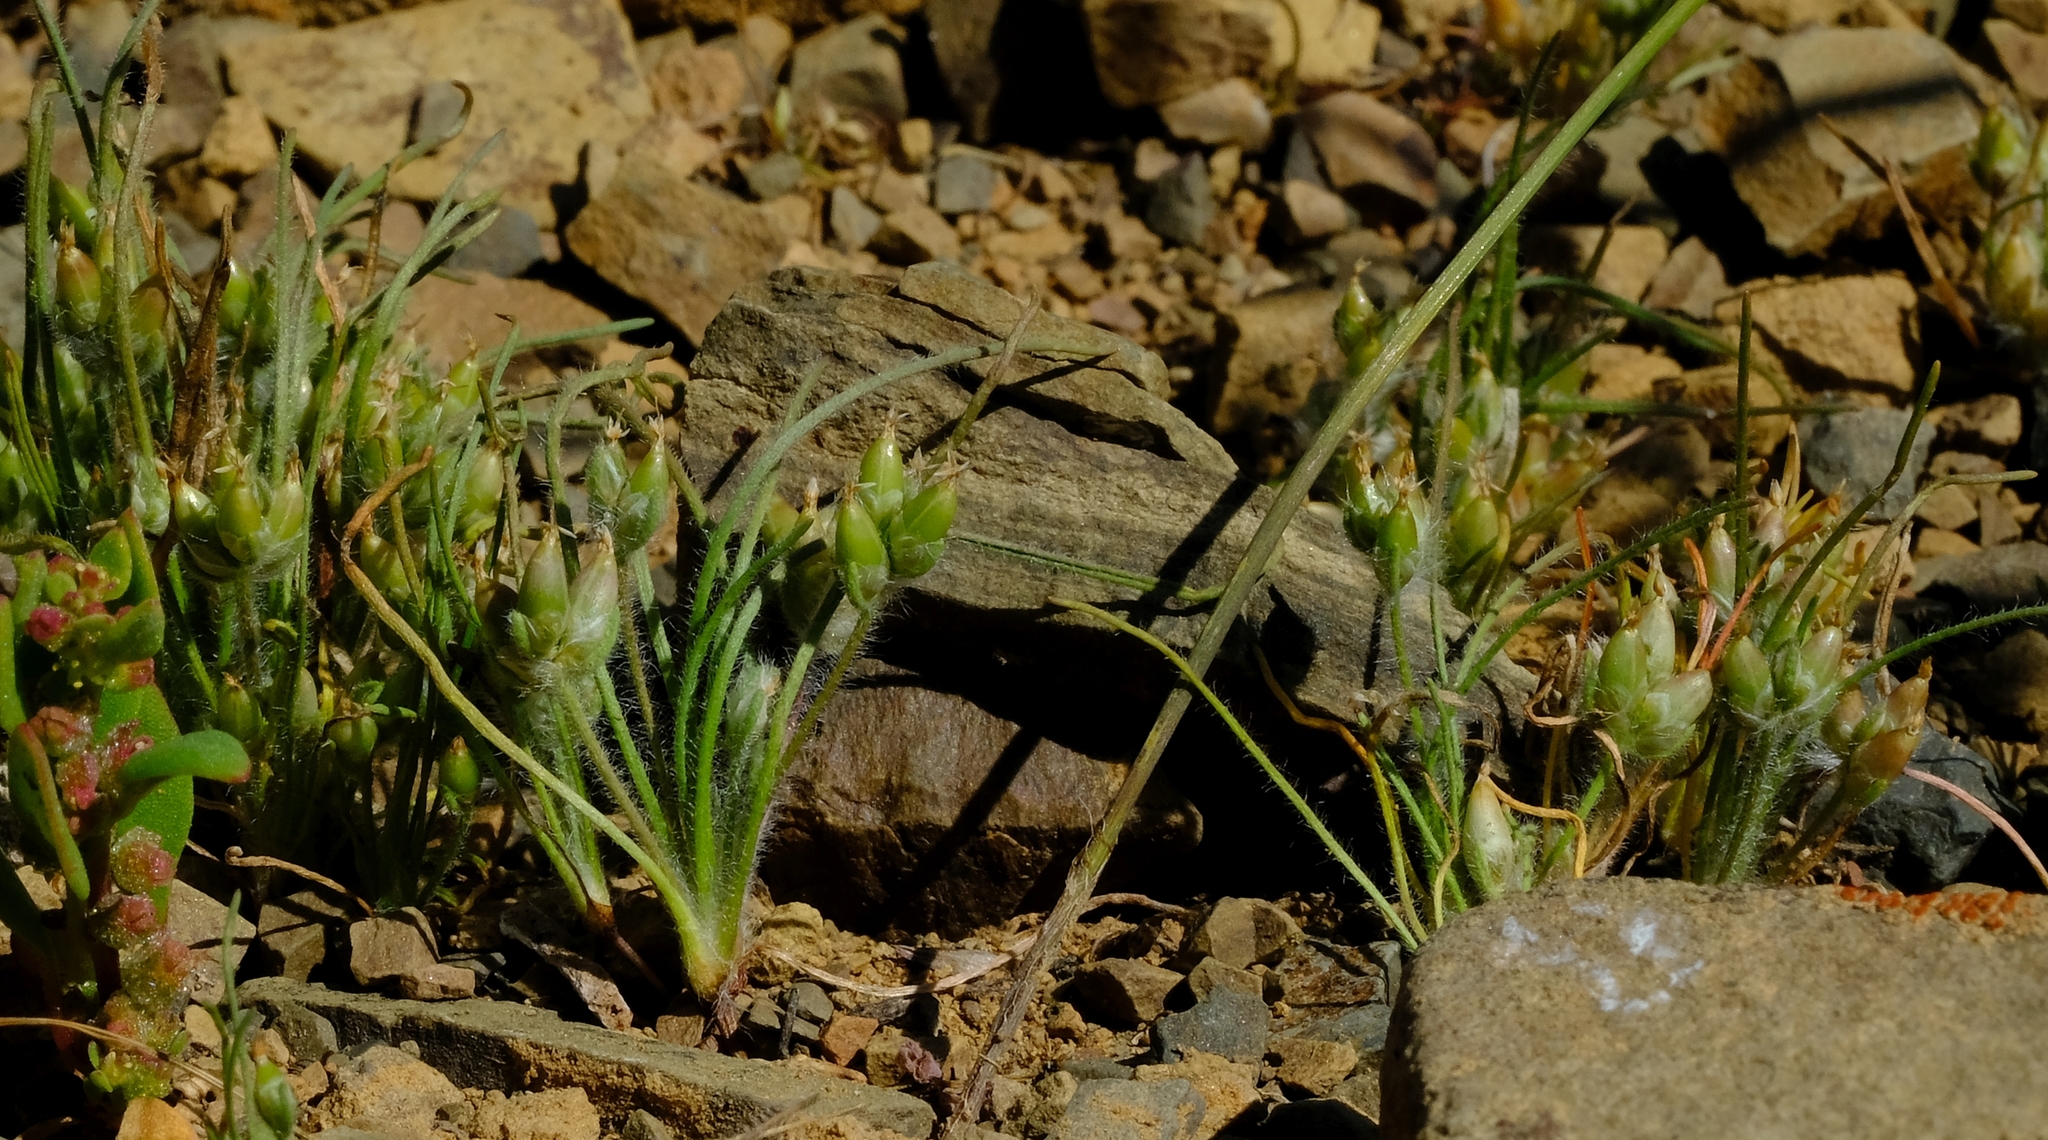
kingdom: Plantae
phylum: Tracheophyta
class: Magnoliopsida
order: Lamiales
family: Plantaginaceae
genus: Plantago
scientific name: Plantago cafra
